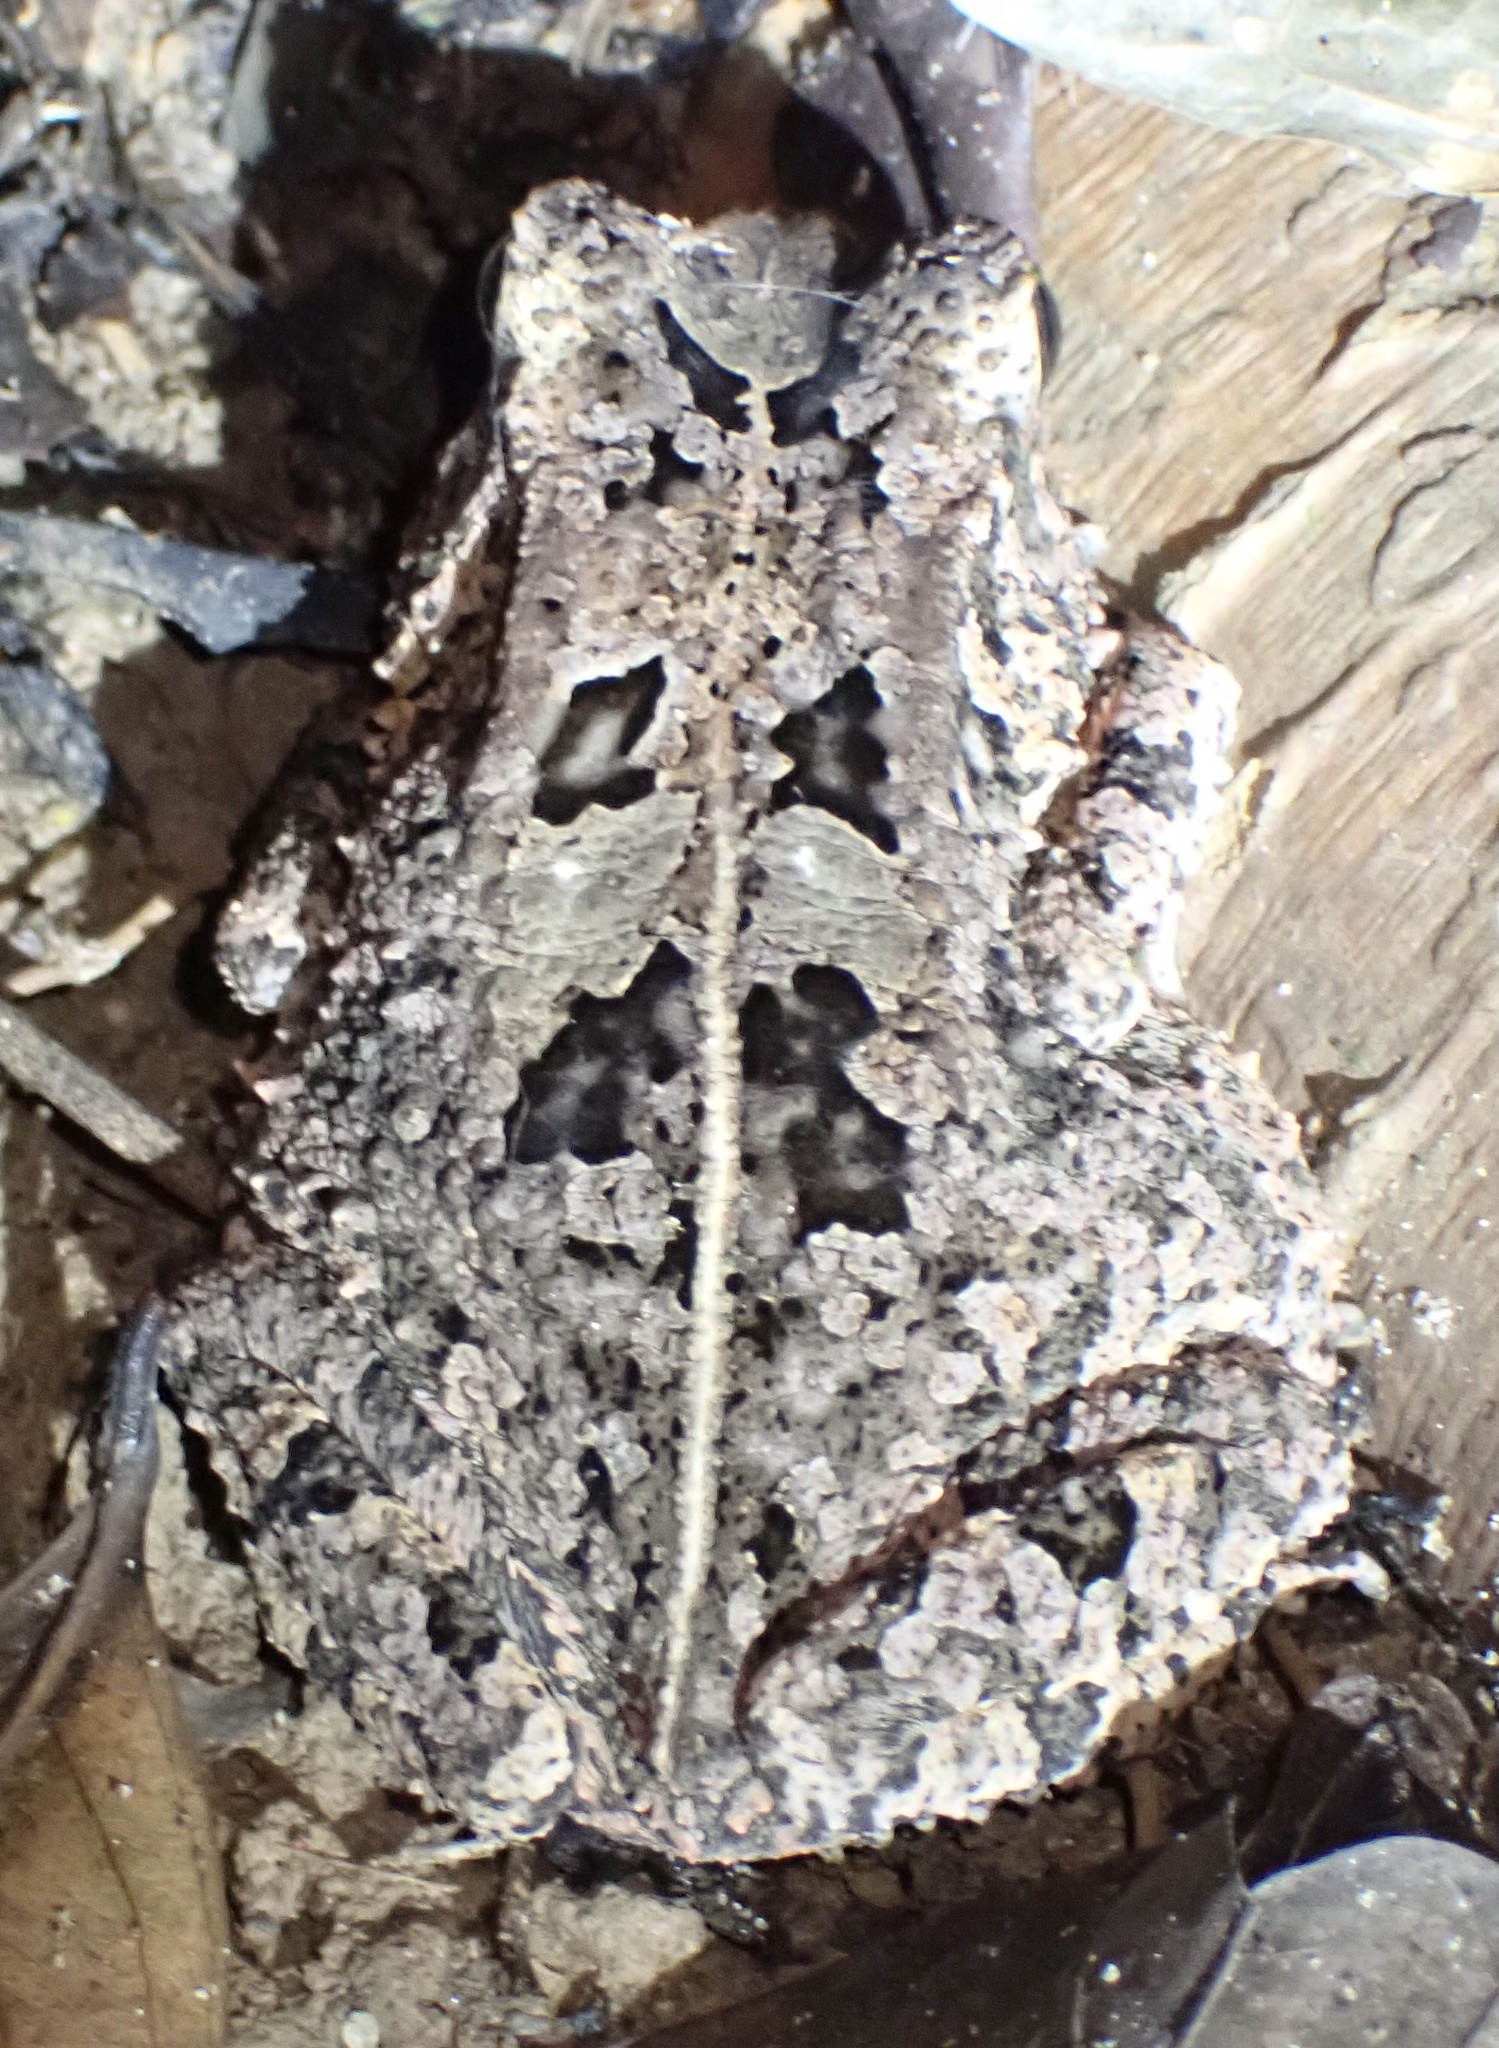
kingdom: Animalia
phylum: Chordata
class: Amphibia
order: Anura
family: Bufonidae
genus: Sclerophrys
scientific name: Sclerophrys togoensis
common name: Togo toad
